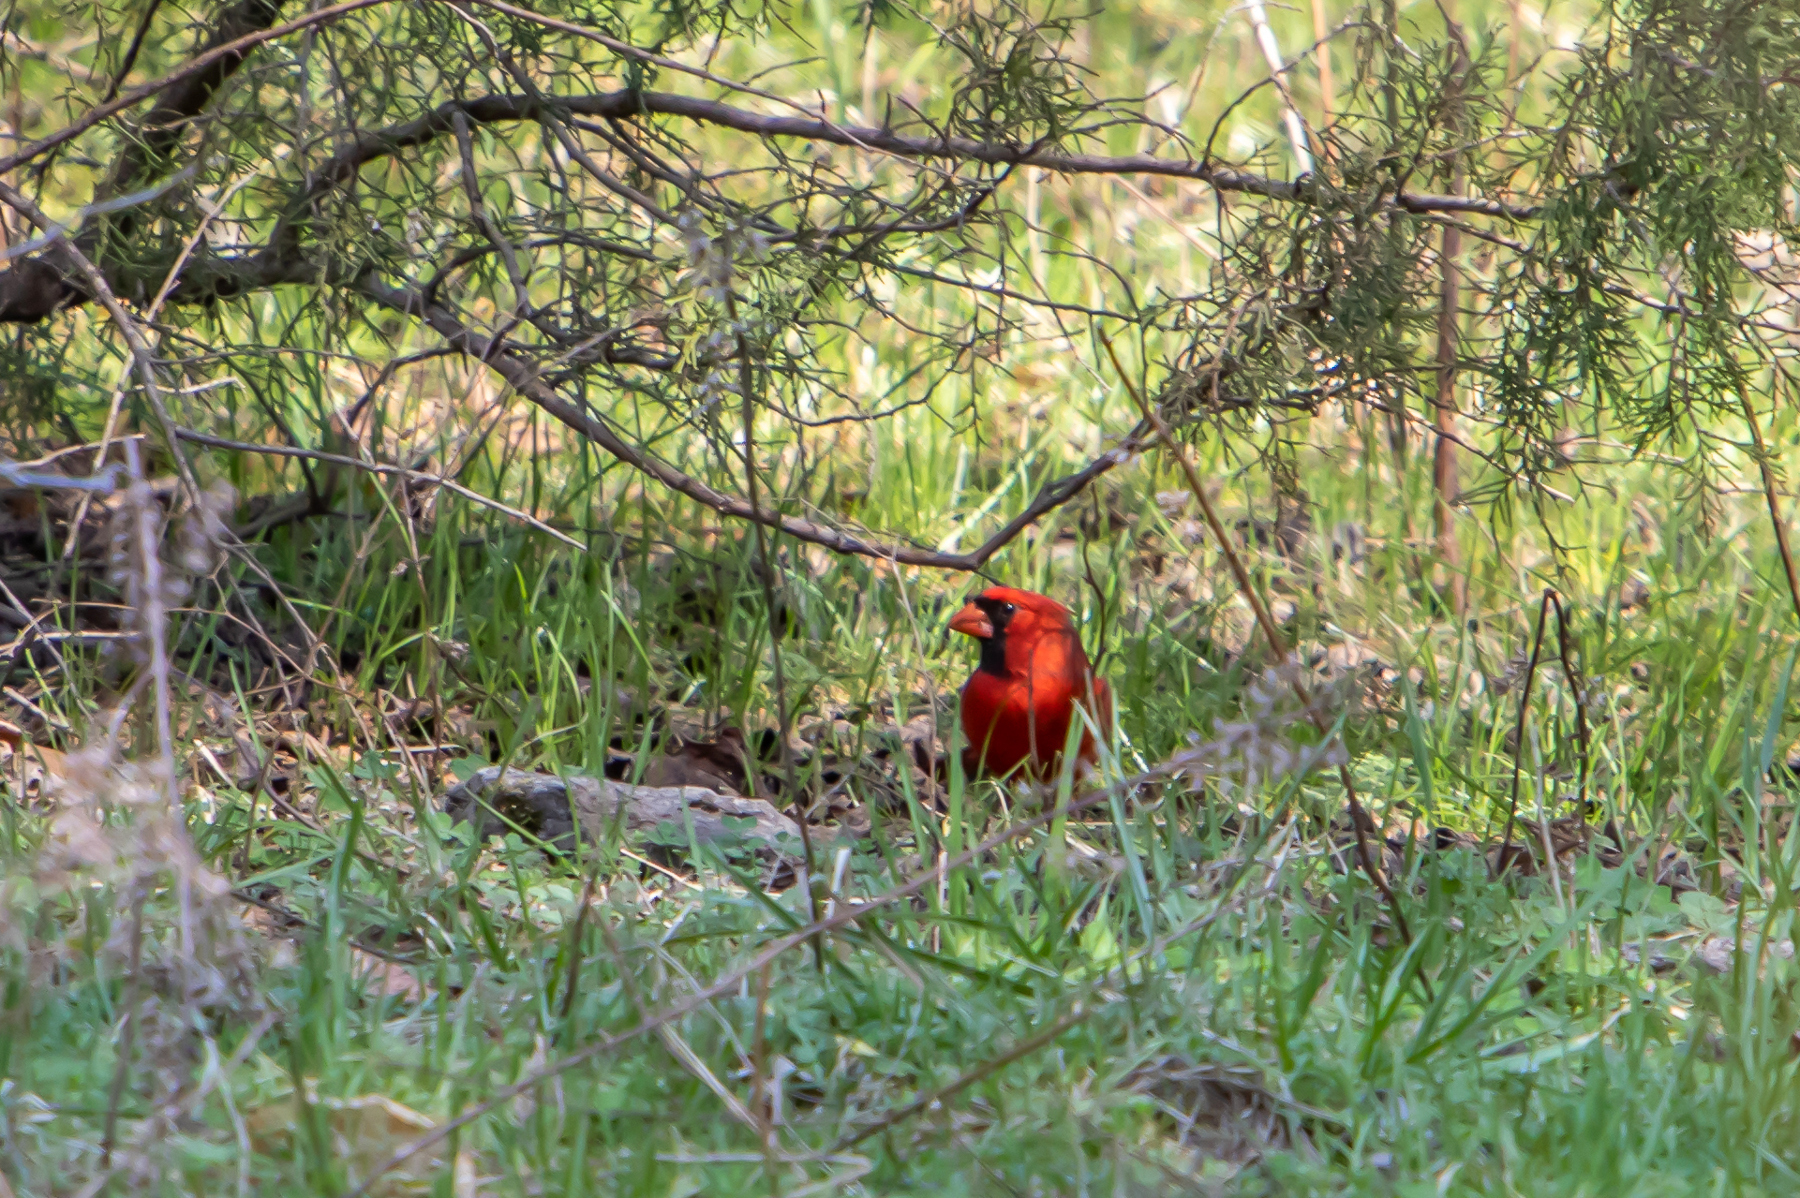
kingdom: Animalia
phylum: Chordata
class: Aves
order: Passeriformes
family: Cardinalidae
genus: Cardinalis
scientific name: Cardinalis cardinalis
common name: Northern cardinal
